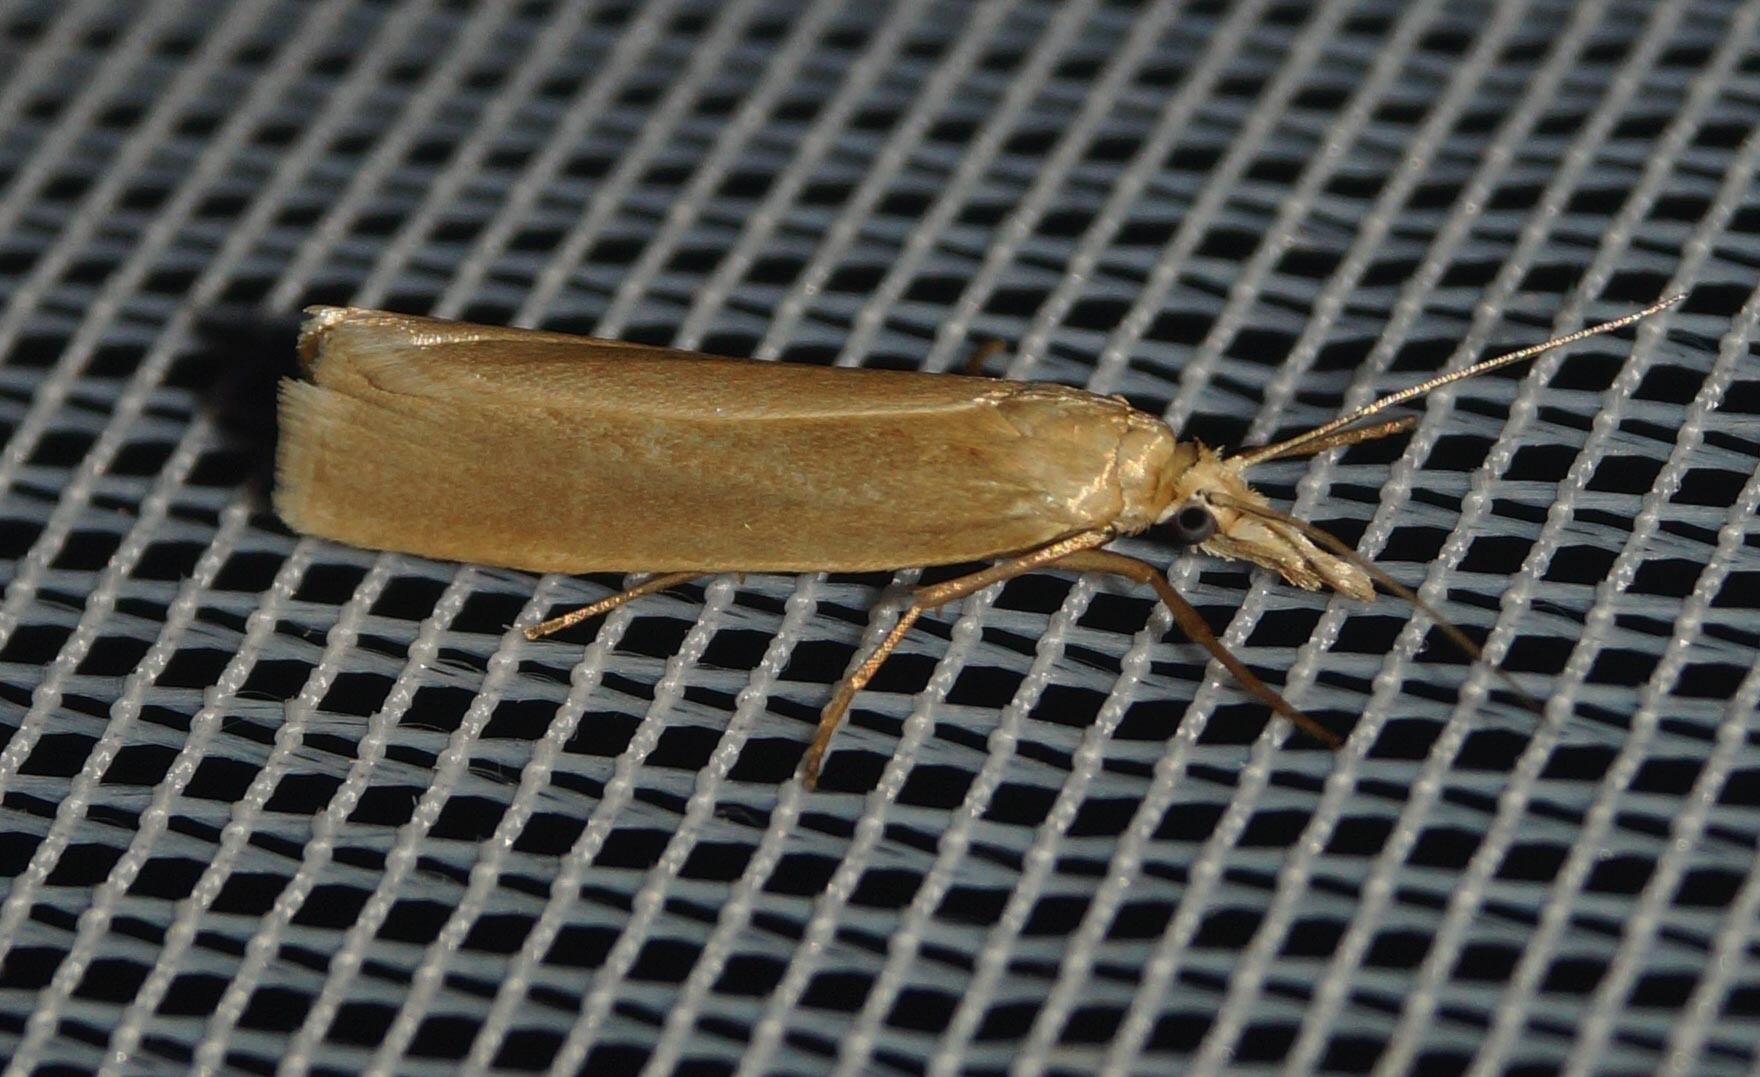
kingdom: Animalia
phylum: Arthropoda
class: Insecta
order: Lepidoptera
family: Crambidae
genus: Crambus
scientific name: Crambus perlellus
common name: Yellow satin veneer
